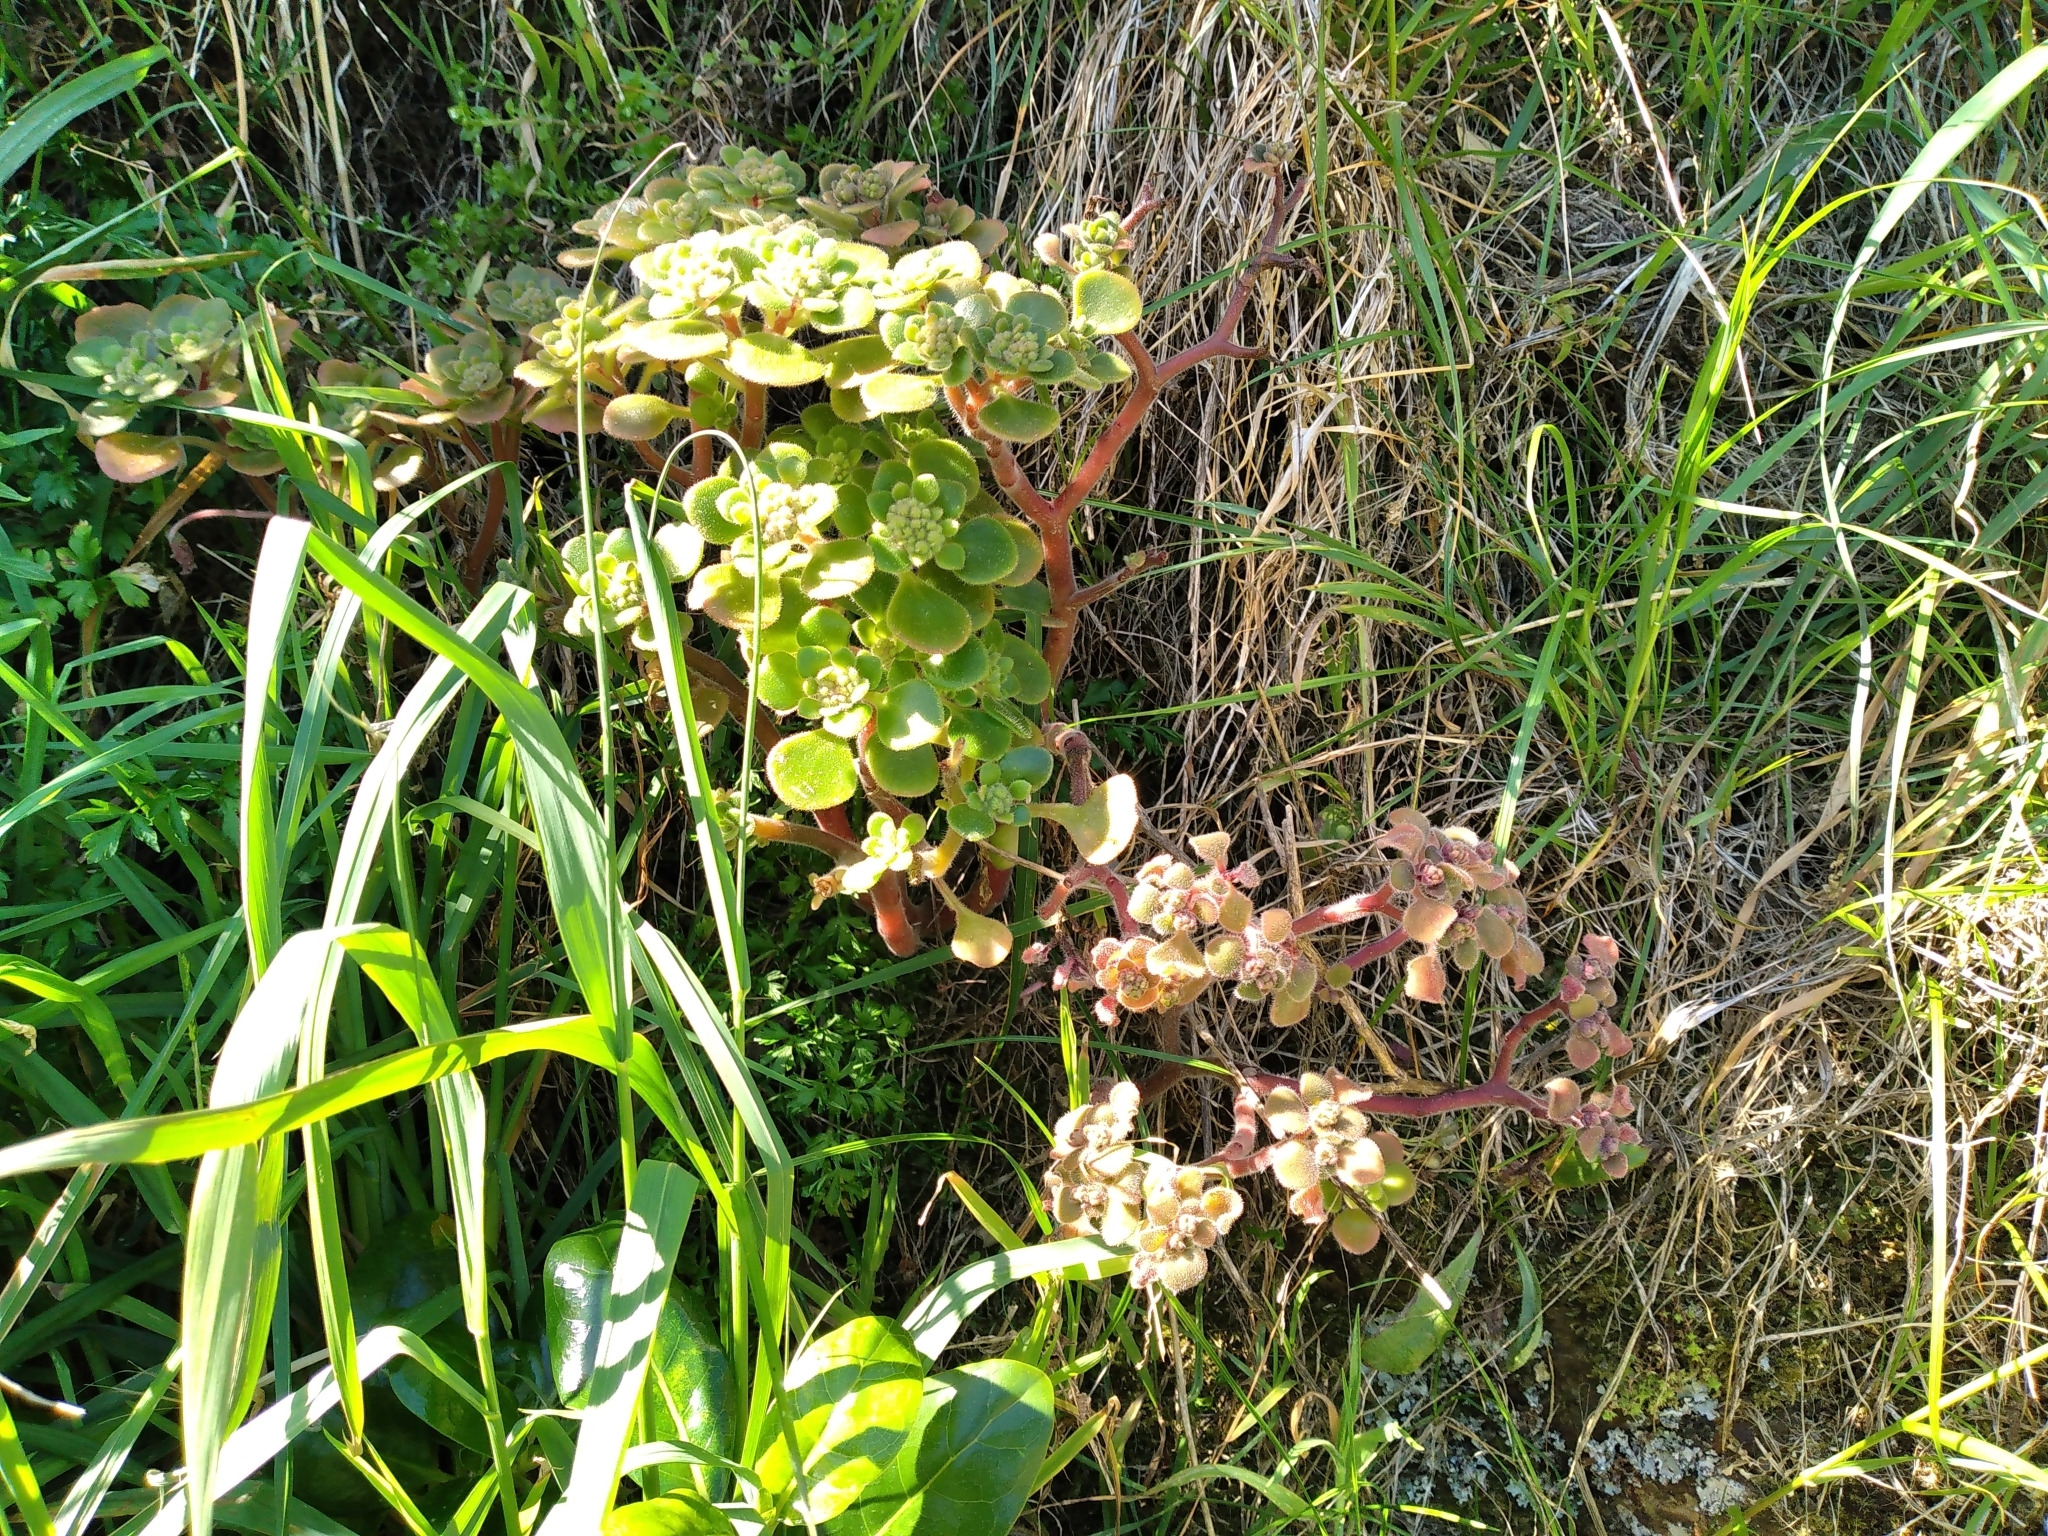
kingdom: Plantae
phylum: Tracheophyta
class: Magnoliopsida
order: Saxifragales
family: Crassulaceae
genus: Aichryson
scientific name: Aichryson laxum
